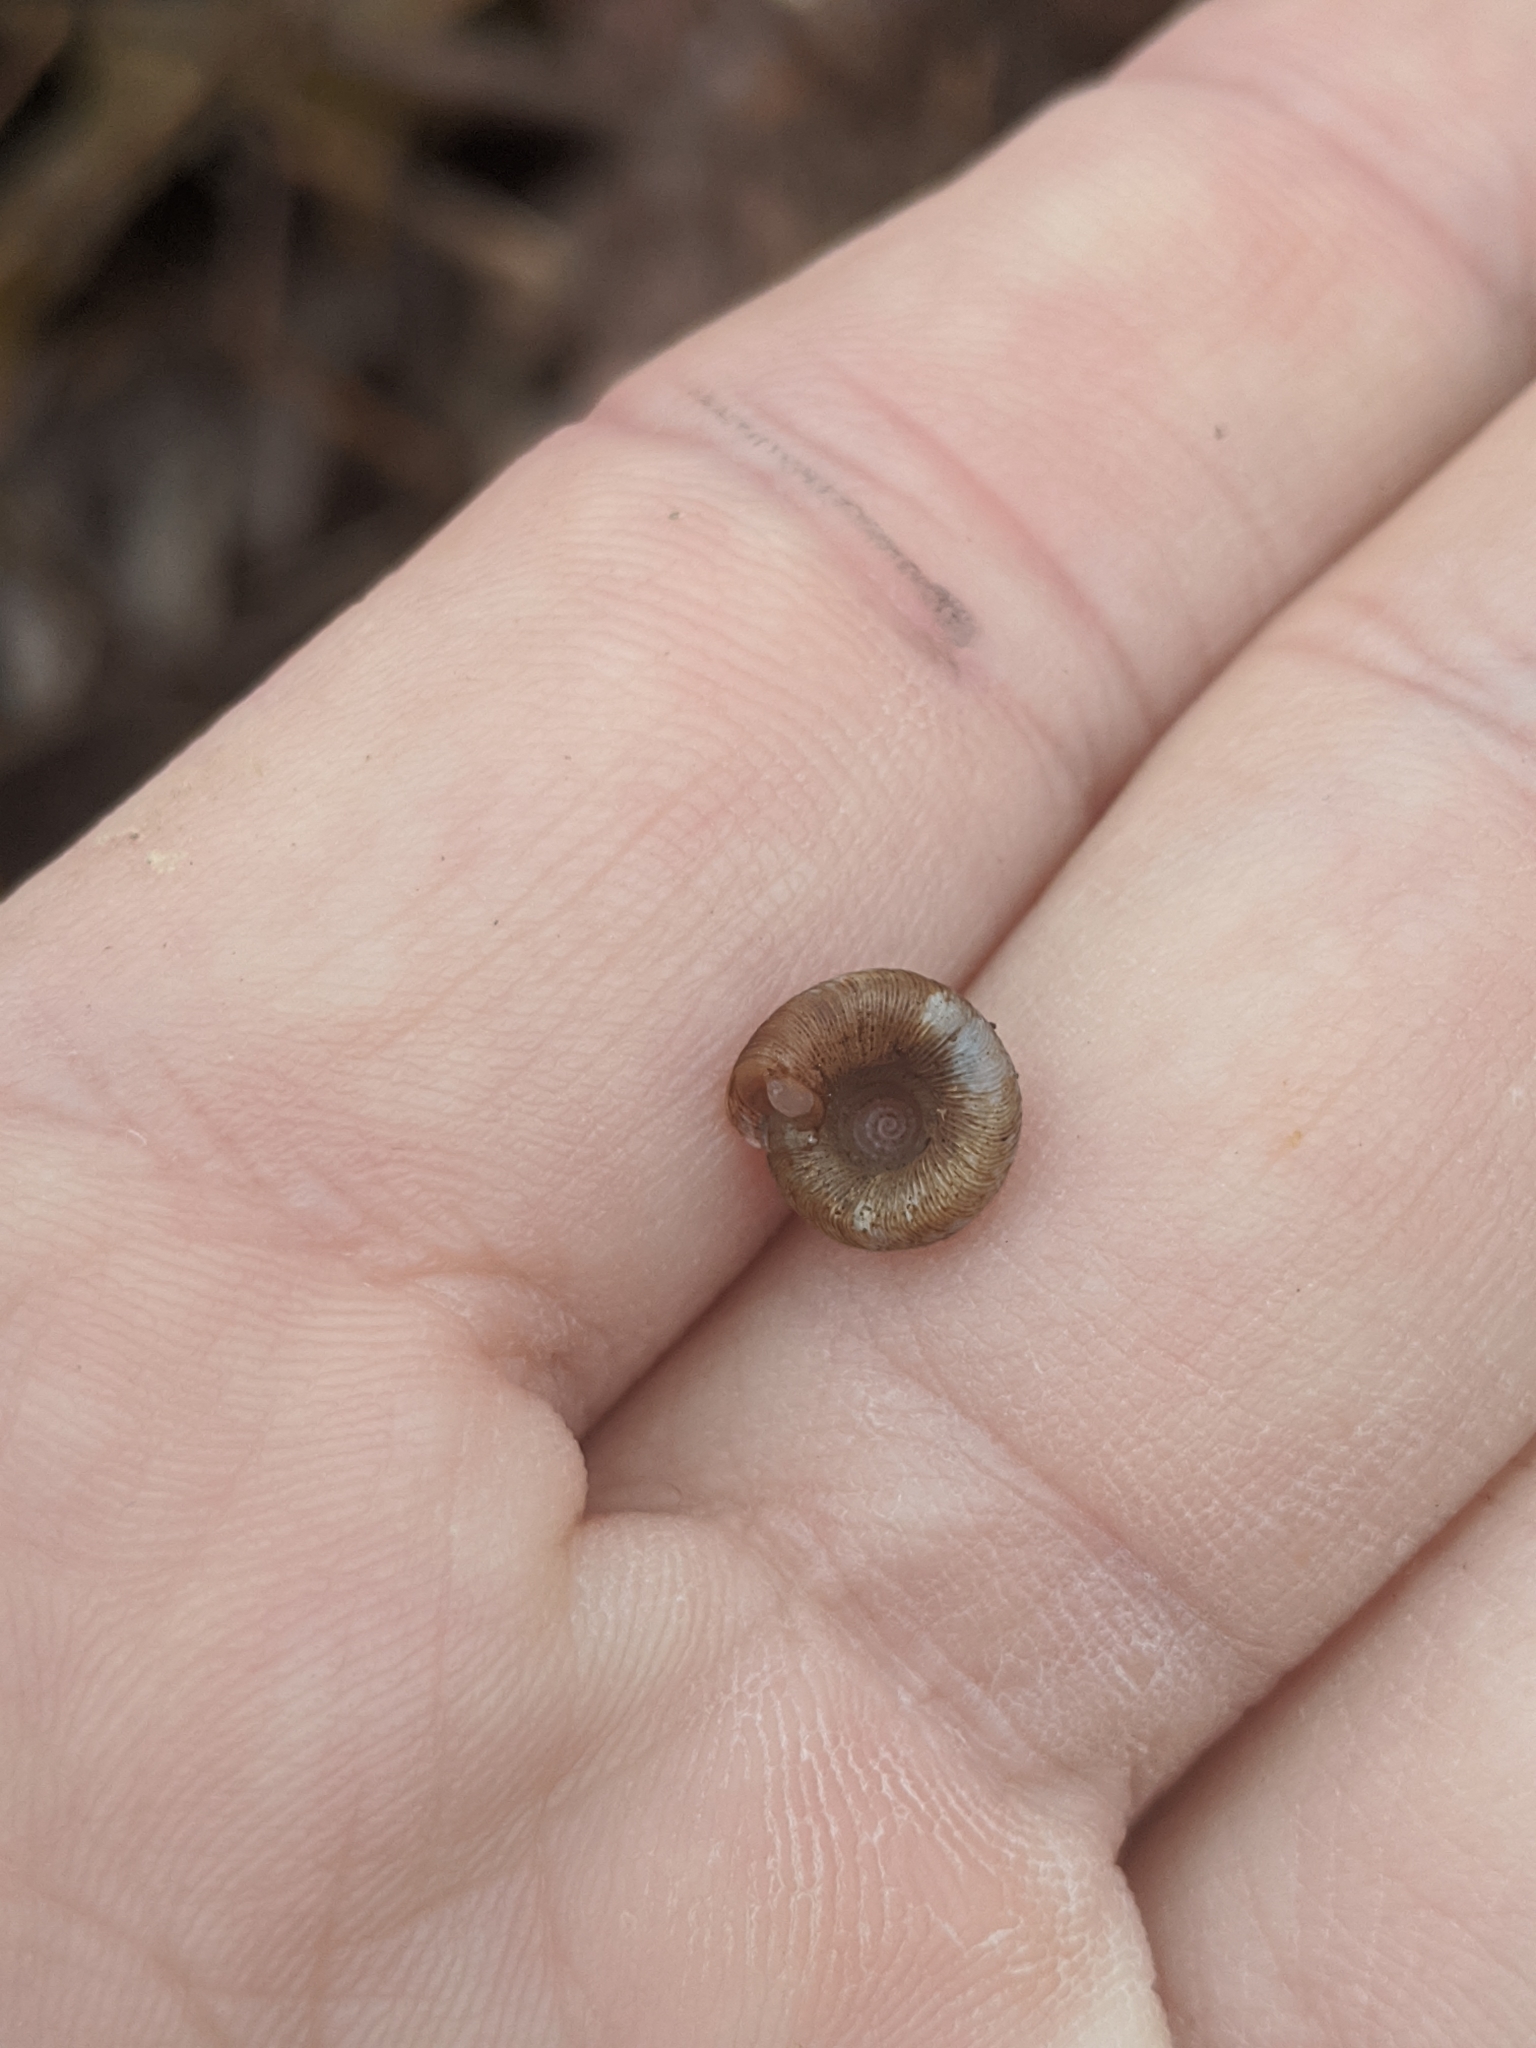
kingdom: Animalia
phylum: Mollusca
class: Gastropoda
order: Stylommatophora
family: Discidae
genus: Discus
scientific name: Discus patulus
